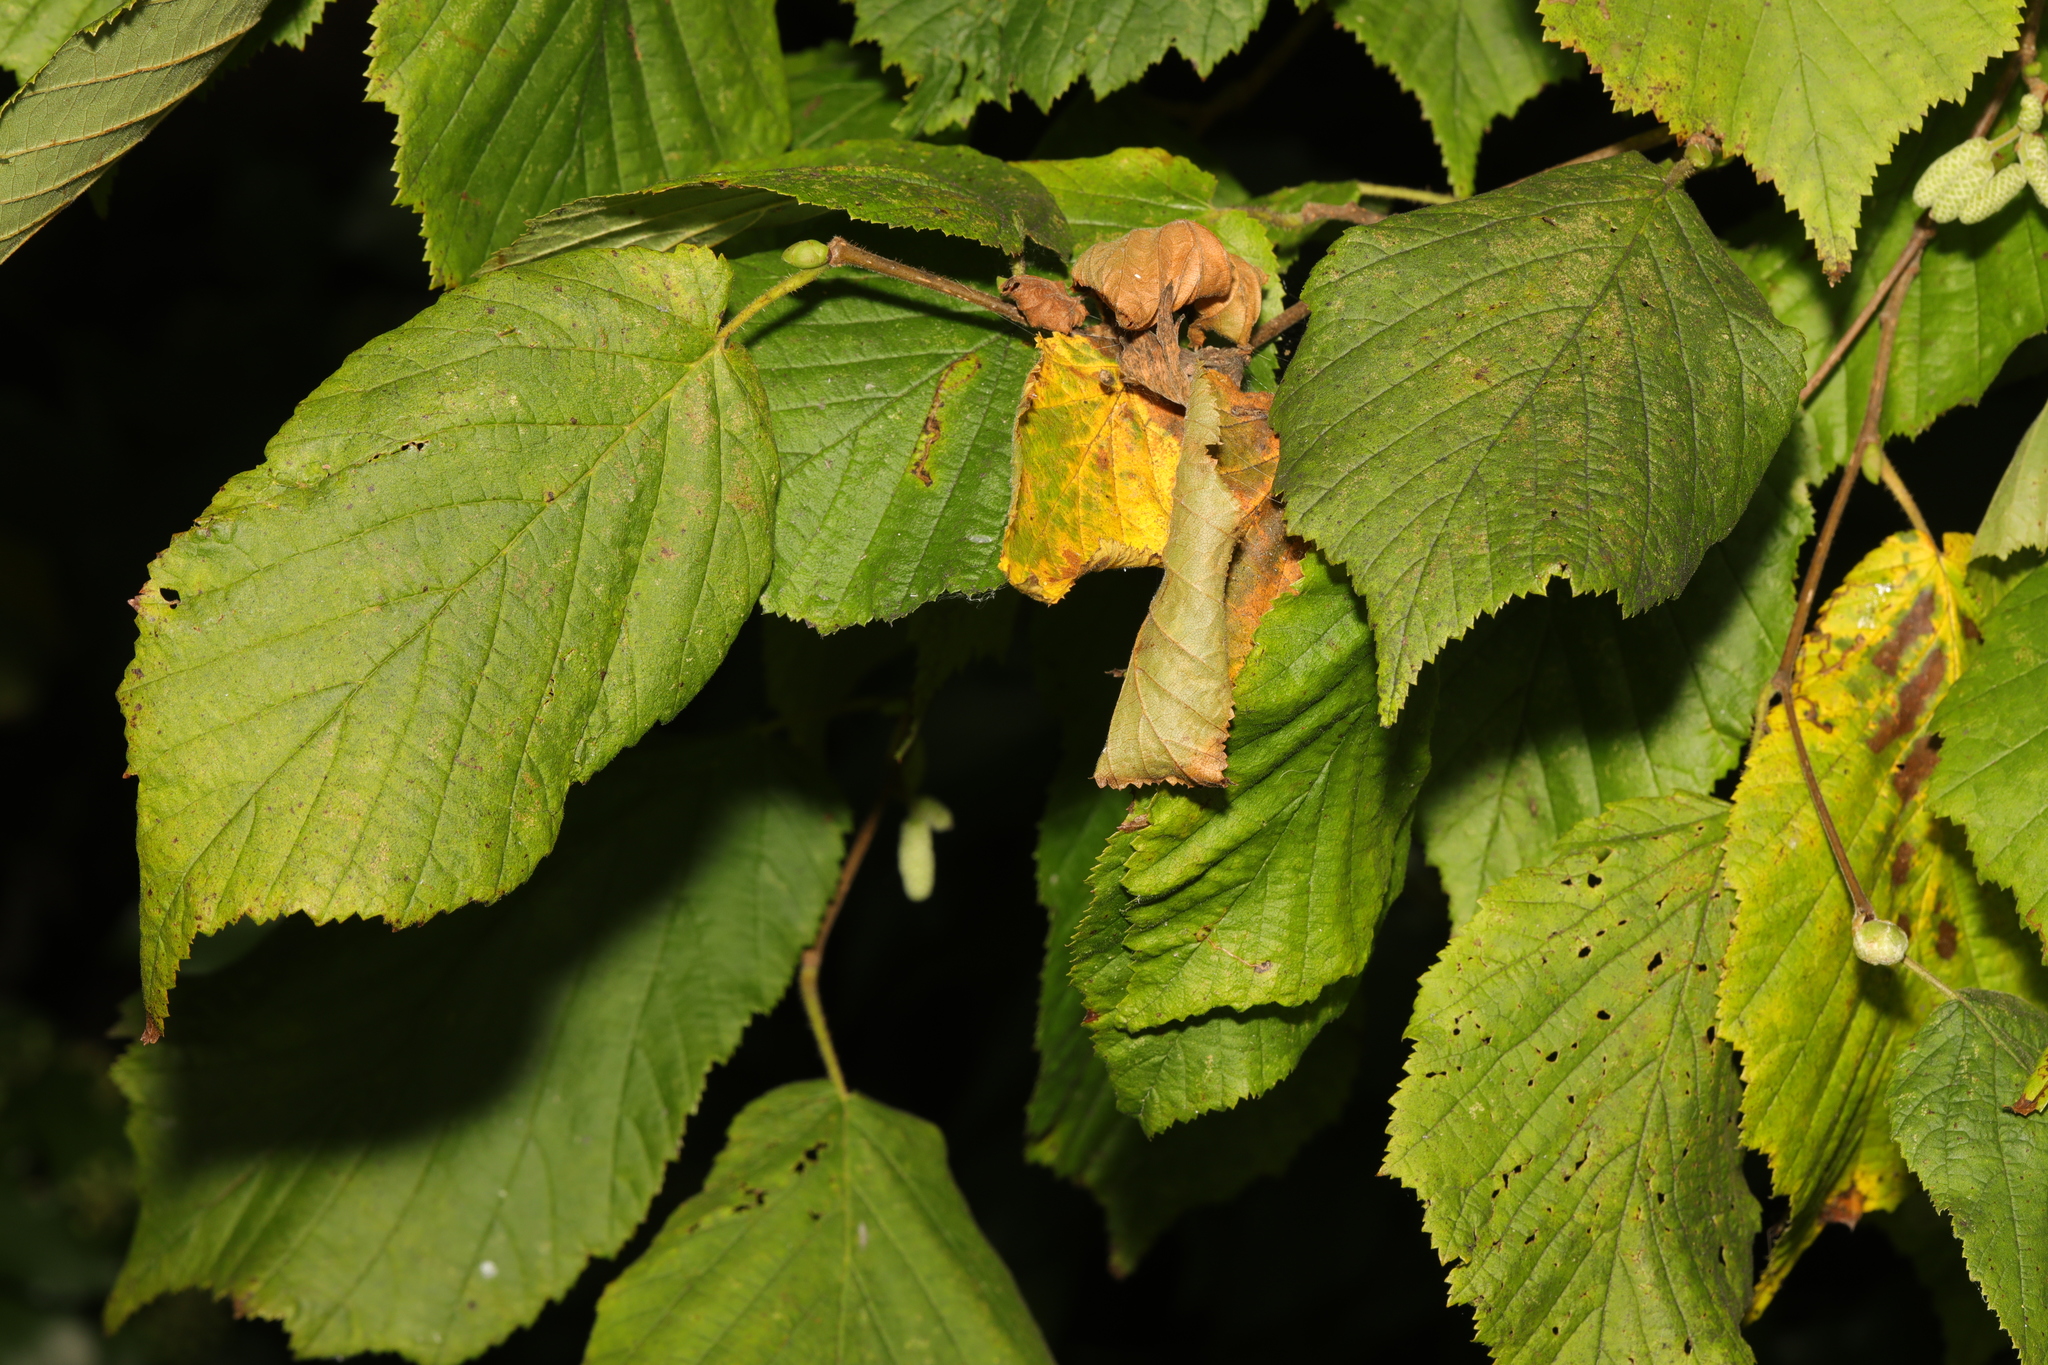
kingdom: Plantae
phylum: Tracheophyta
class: Magnoliopsida
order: Fagales
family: Betulaceae
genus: Corylus
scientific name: Corylus avellana
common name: European hazel
